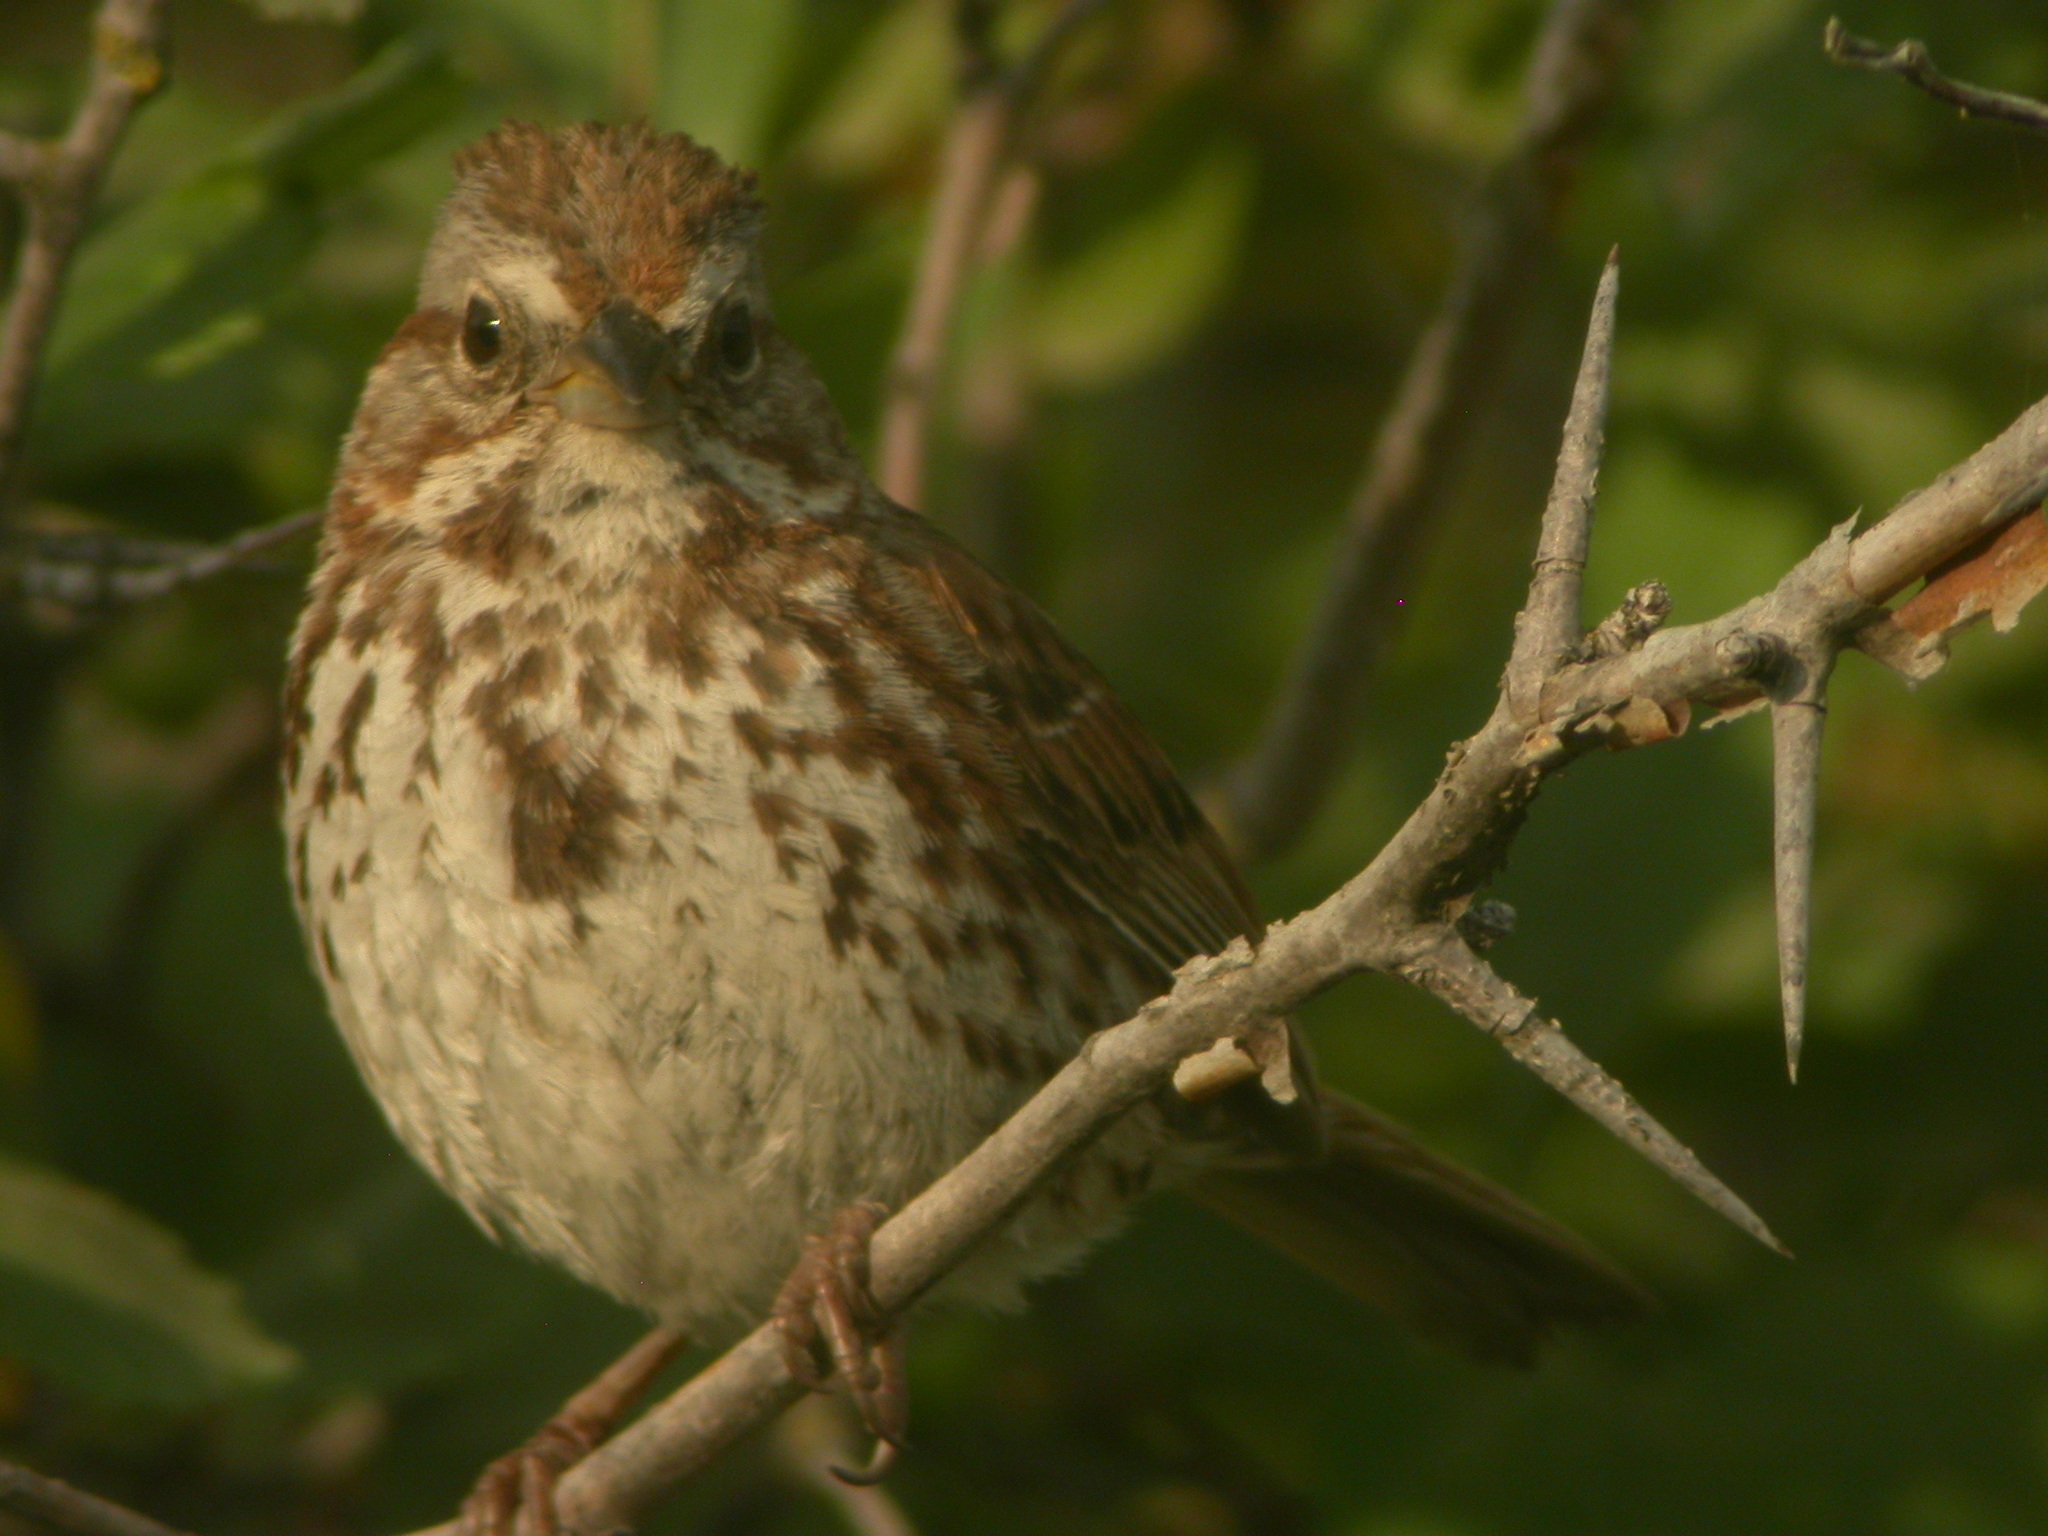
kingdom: Animalia
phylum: Chordata
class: Aves
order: Passeriformes
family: Passerellidae
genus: Melospiza
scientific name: Melospiza melodia
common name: Song sparrow
